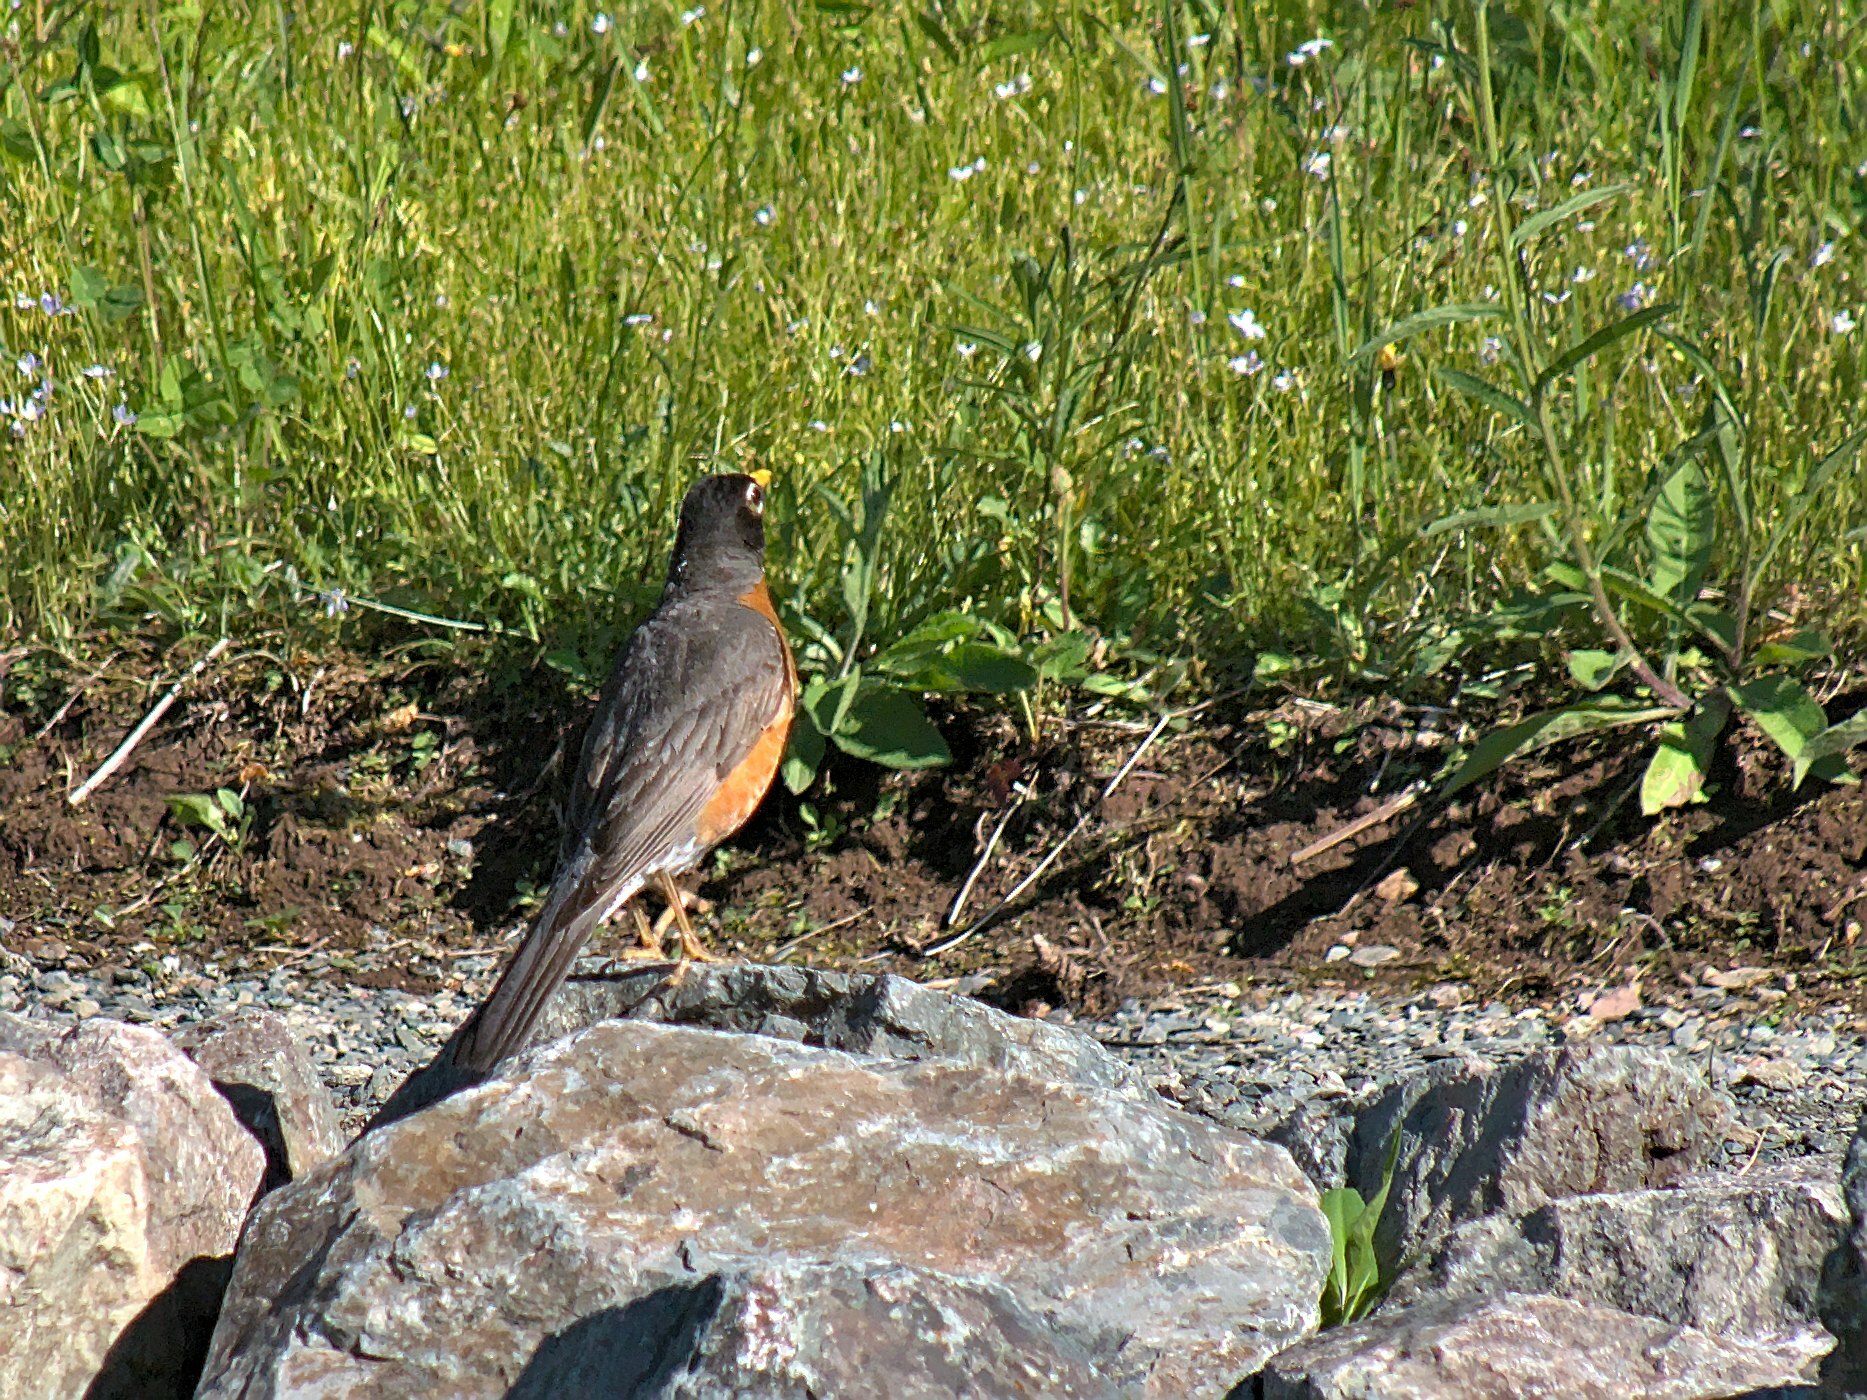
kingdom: Animalia
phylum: Chordata
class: Aves
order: Passeriformes
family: Turdidae
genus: Turdus
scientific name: Turdus migratorius
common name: American robin
